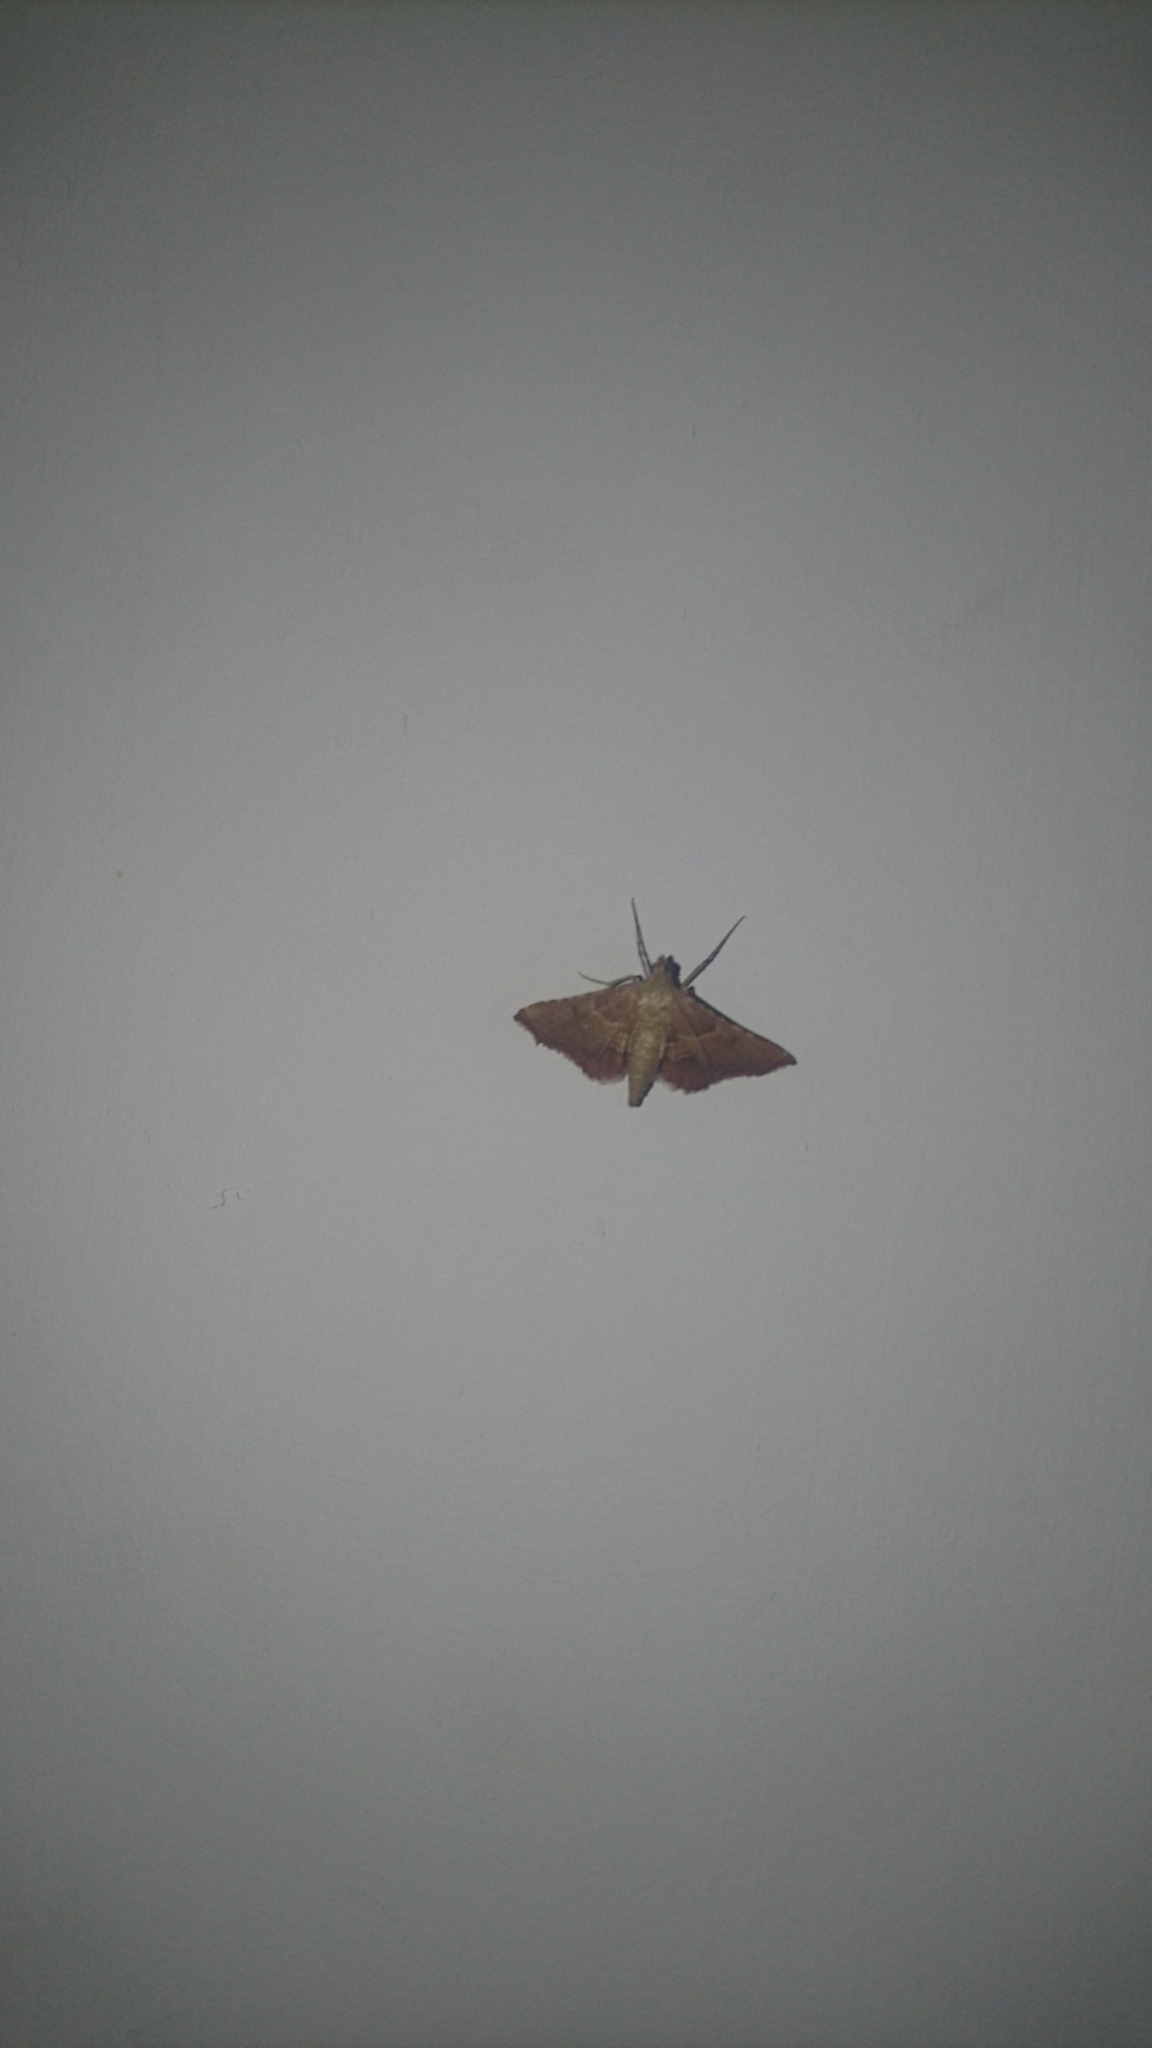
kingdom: Animalia
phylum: Arthropoda
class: Insecta
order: Lepidoptera
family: Pyralidae
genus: Endotricha
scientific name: Endotricha flammealis
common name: Rosy tabby
